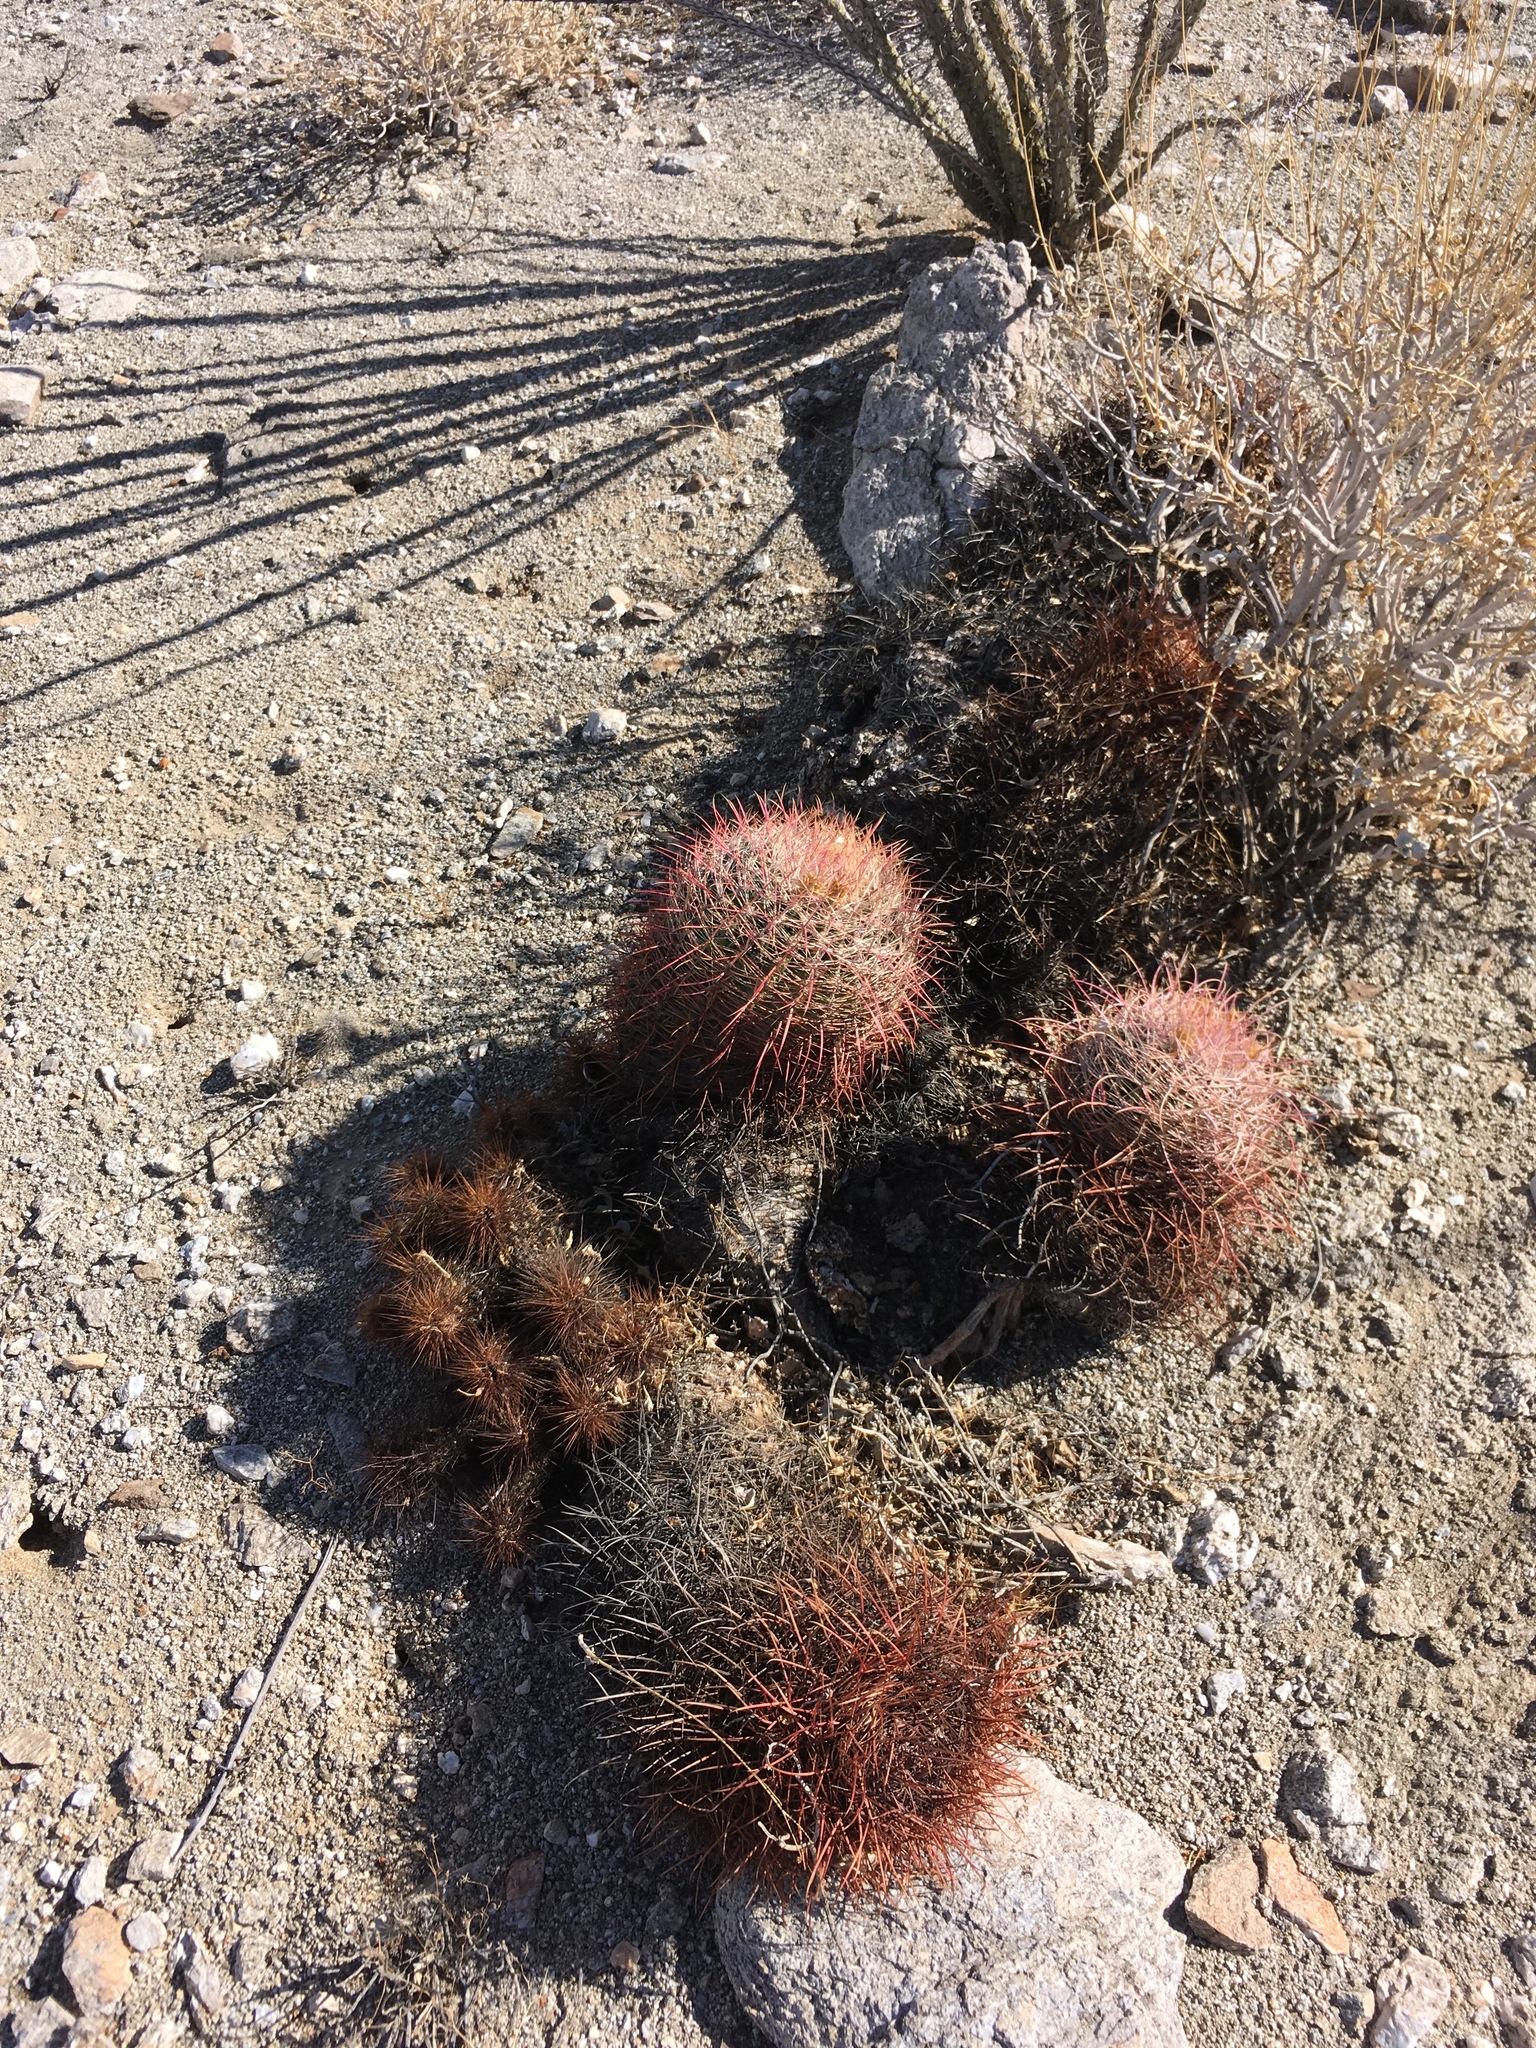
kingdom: Plantae
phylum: Tracheophyta
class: Magnoliopsida
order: Caryophyllales
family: Cactaceae
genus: Ferocactus
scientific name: Ferocactus cylindraceus
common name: California barrel cactus
